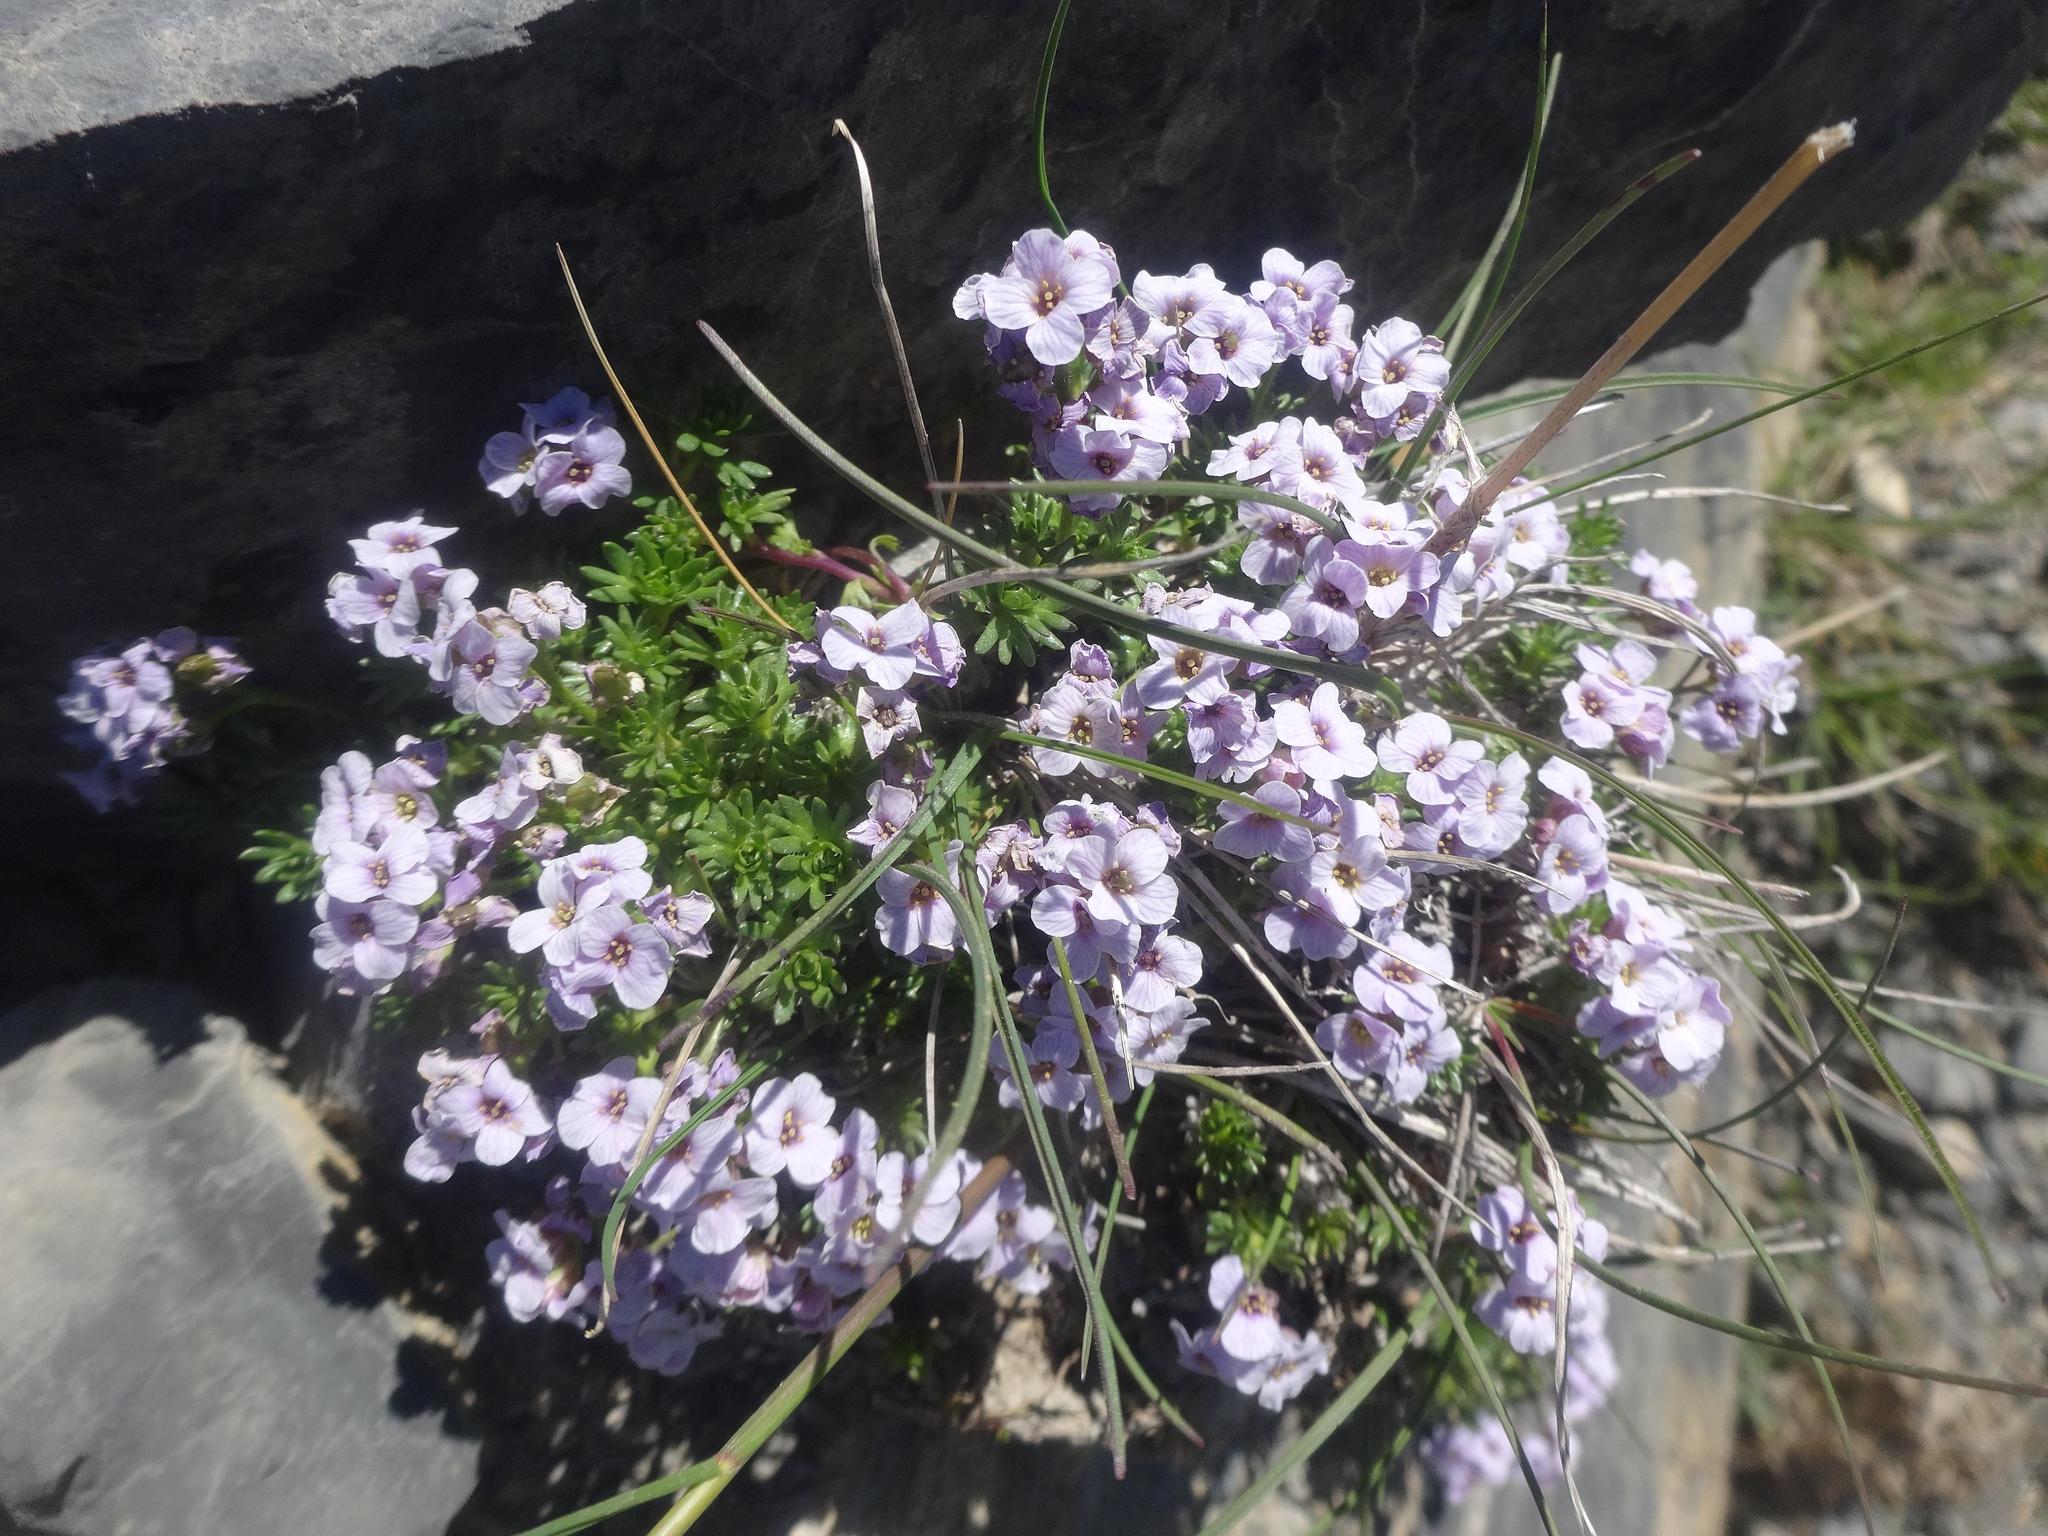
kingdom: Plantae
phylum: Tracheophyta
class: Magnoliopsida
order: Brassicales
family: Brassicaceae
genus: Petrocallis
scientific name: Petrocallis pyrenaica
